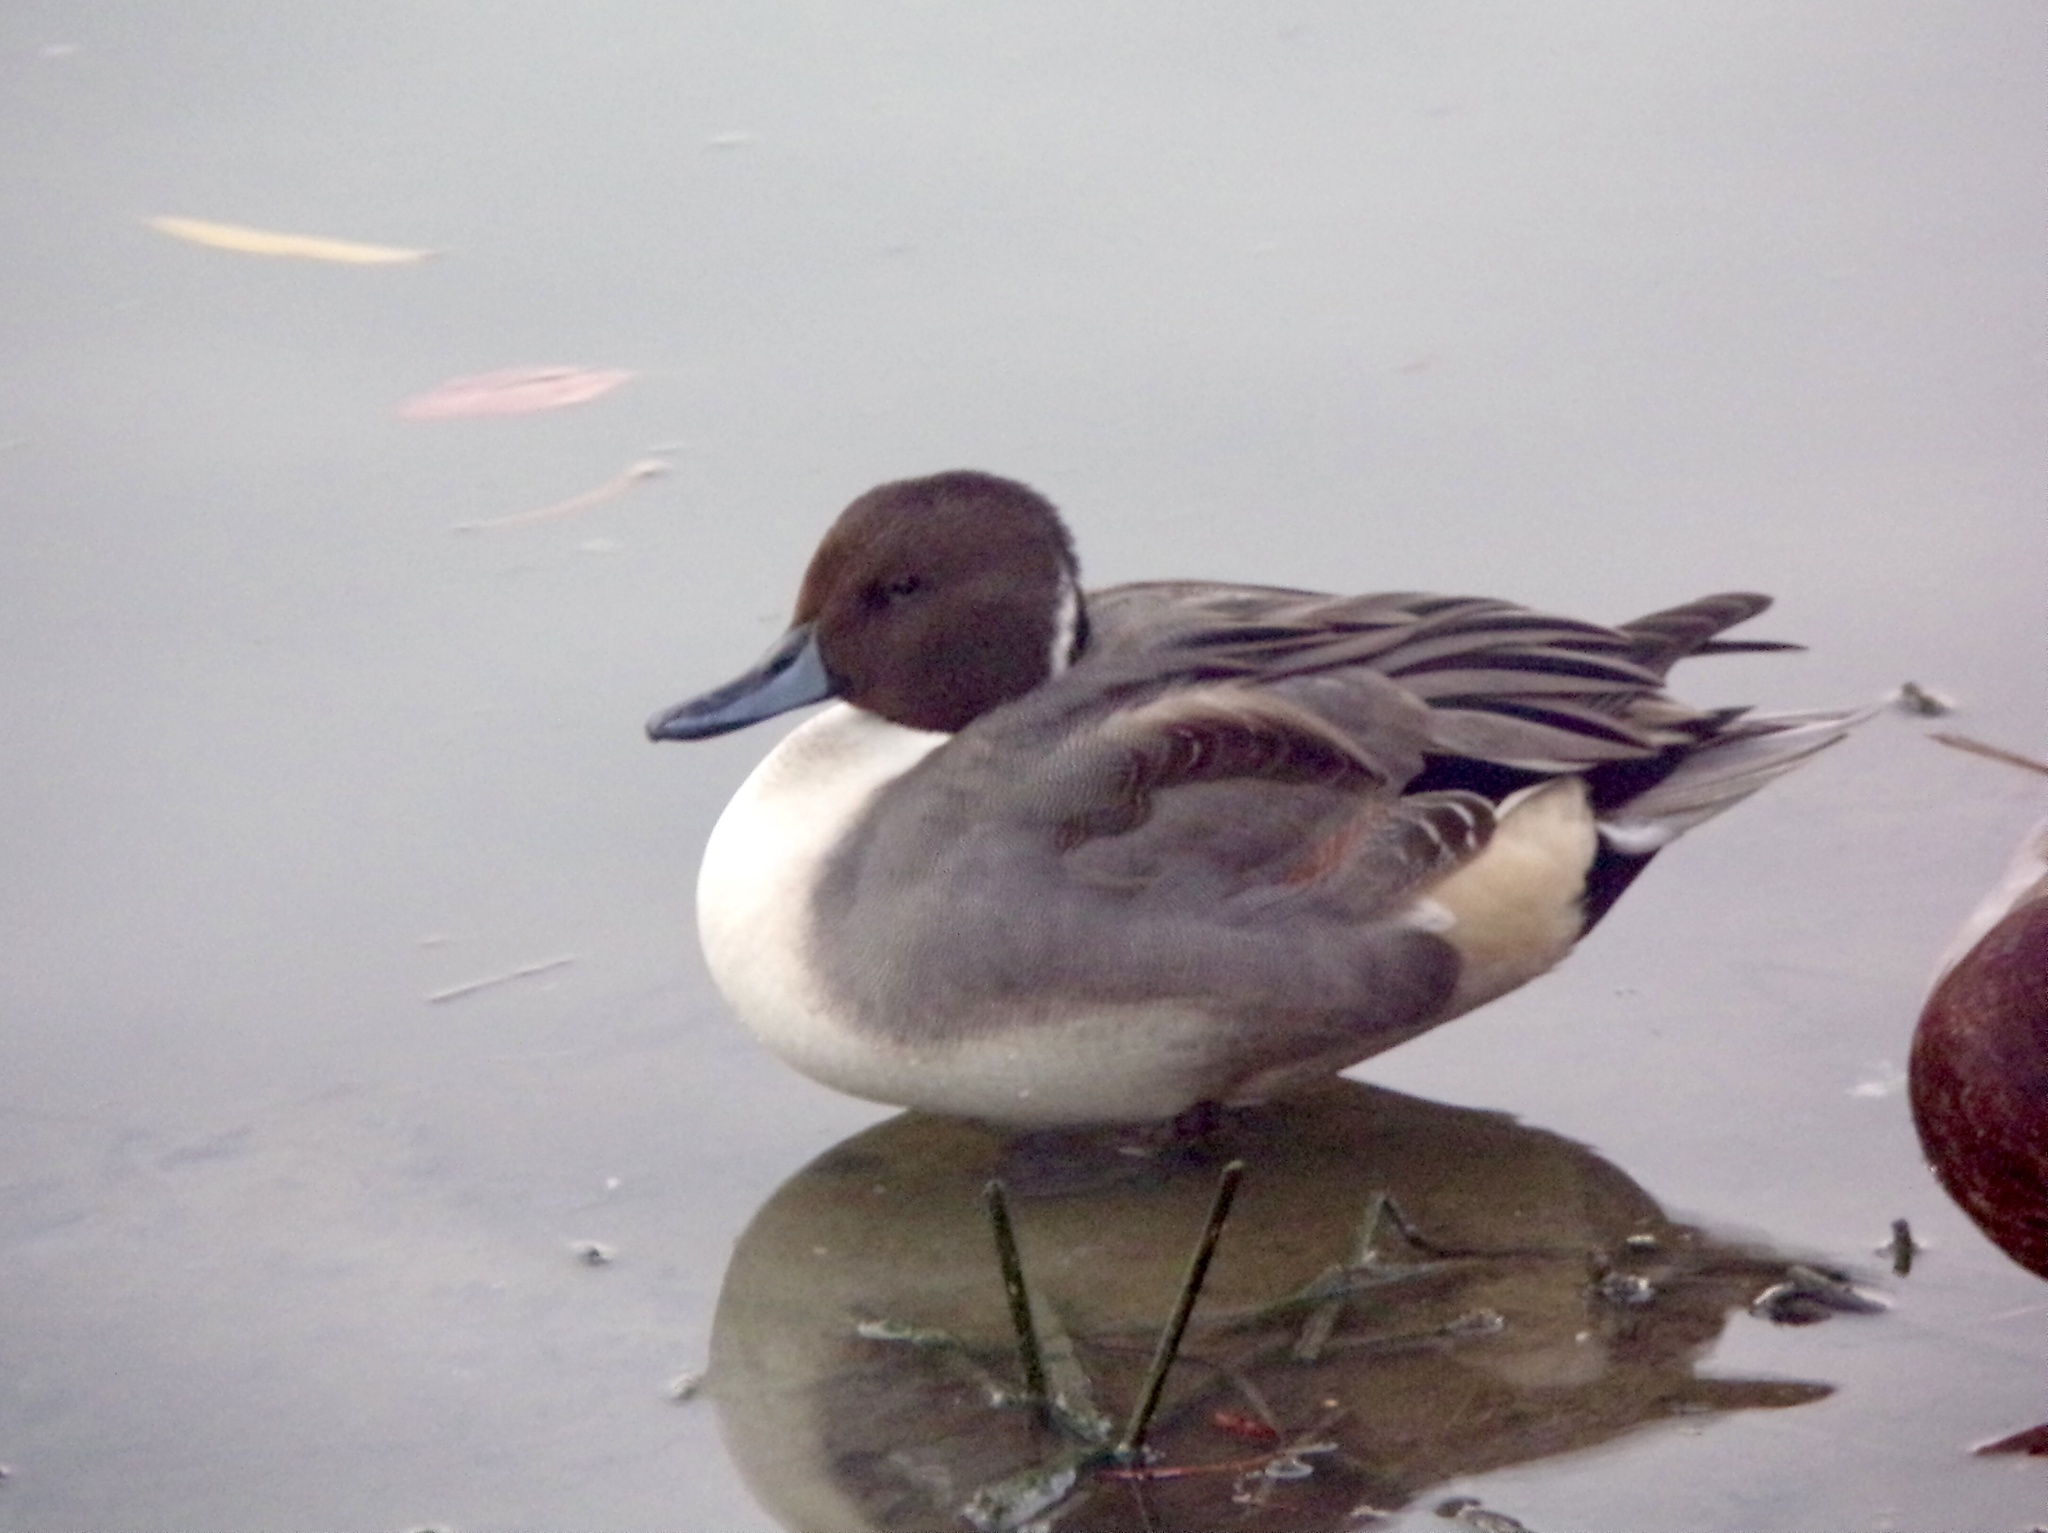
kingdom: Animalia
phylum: Chordata
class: Aves
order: Anseriformes
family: Anatidae
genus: Anas
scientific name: Anas acuta
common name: Northern pintail
